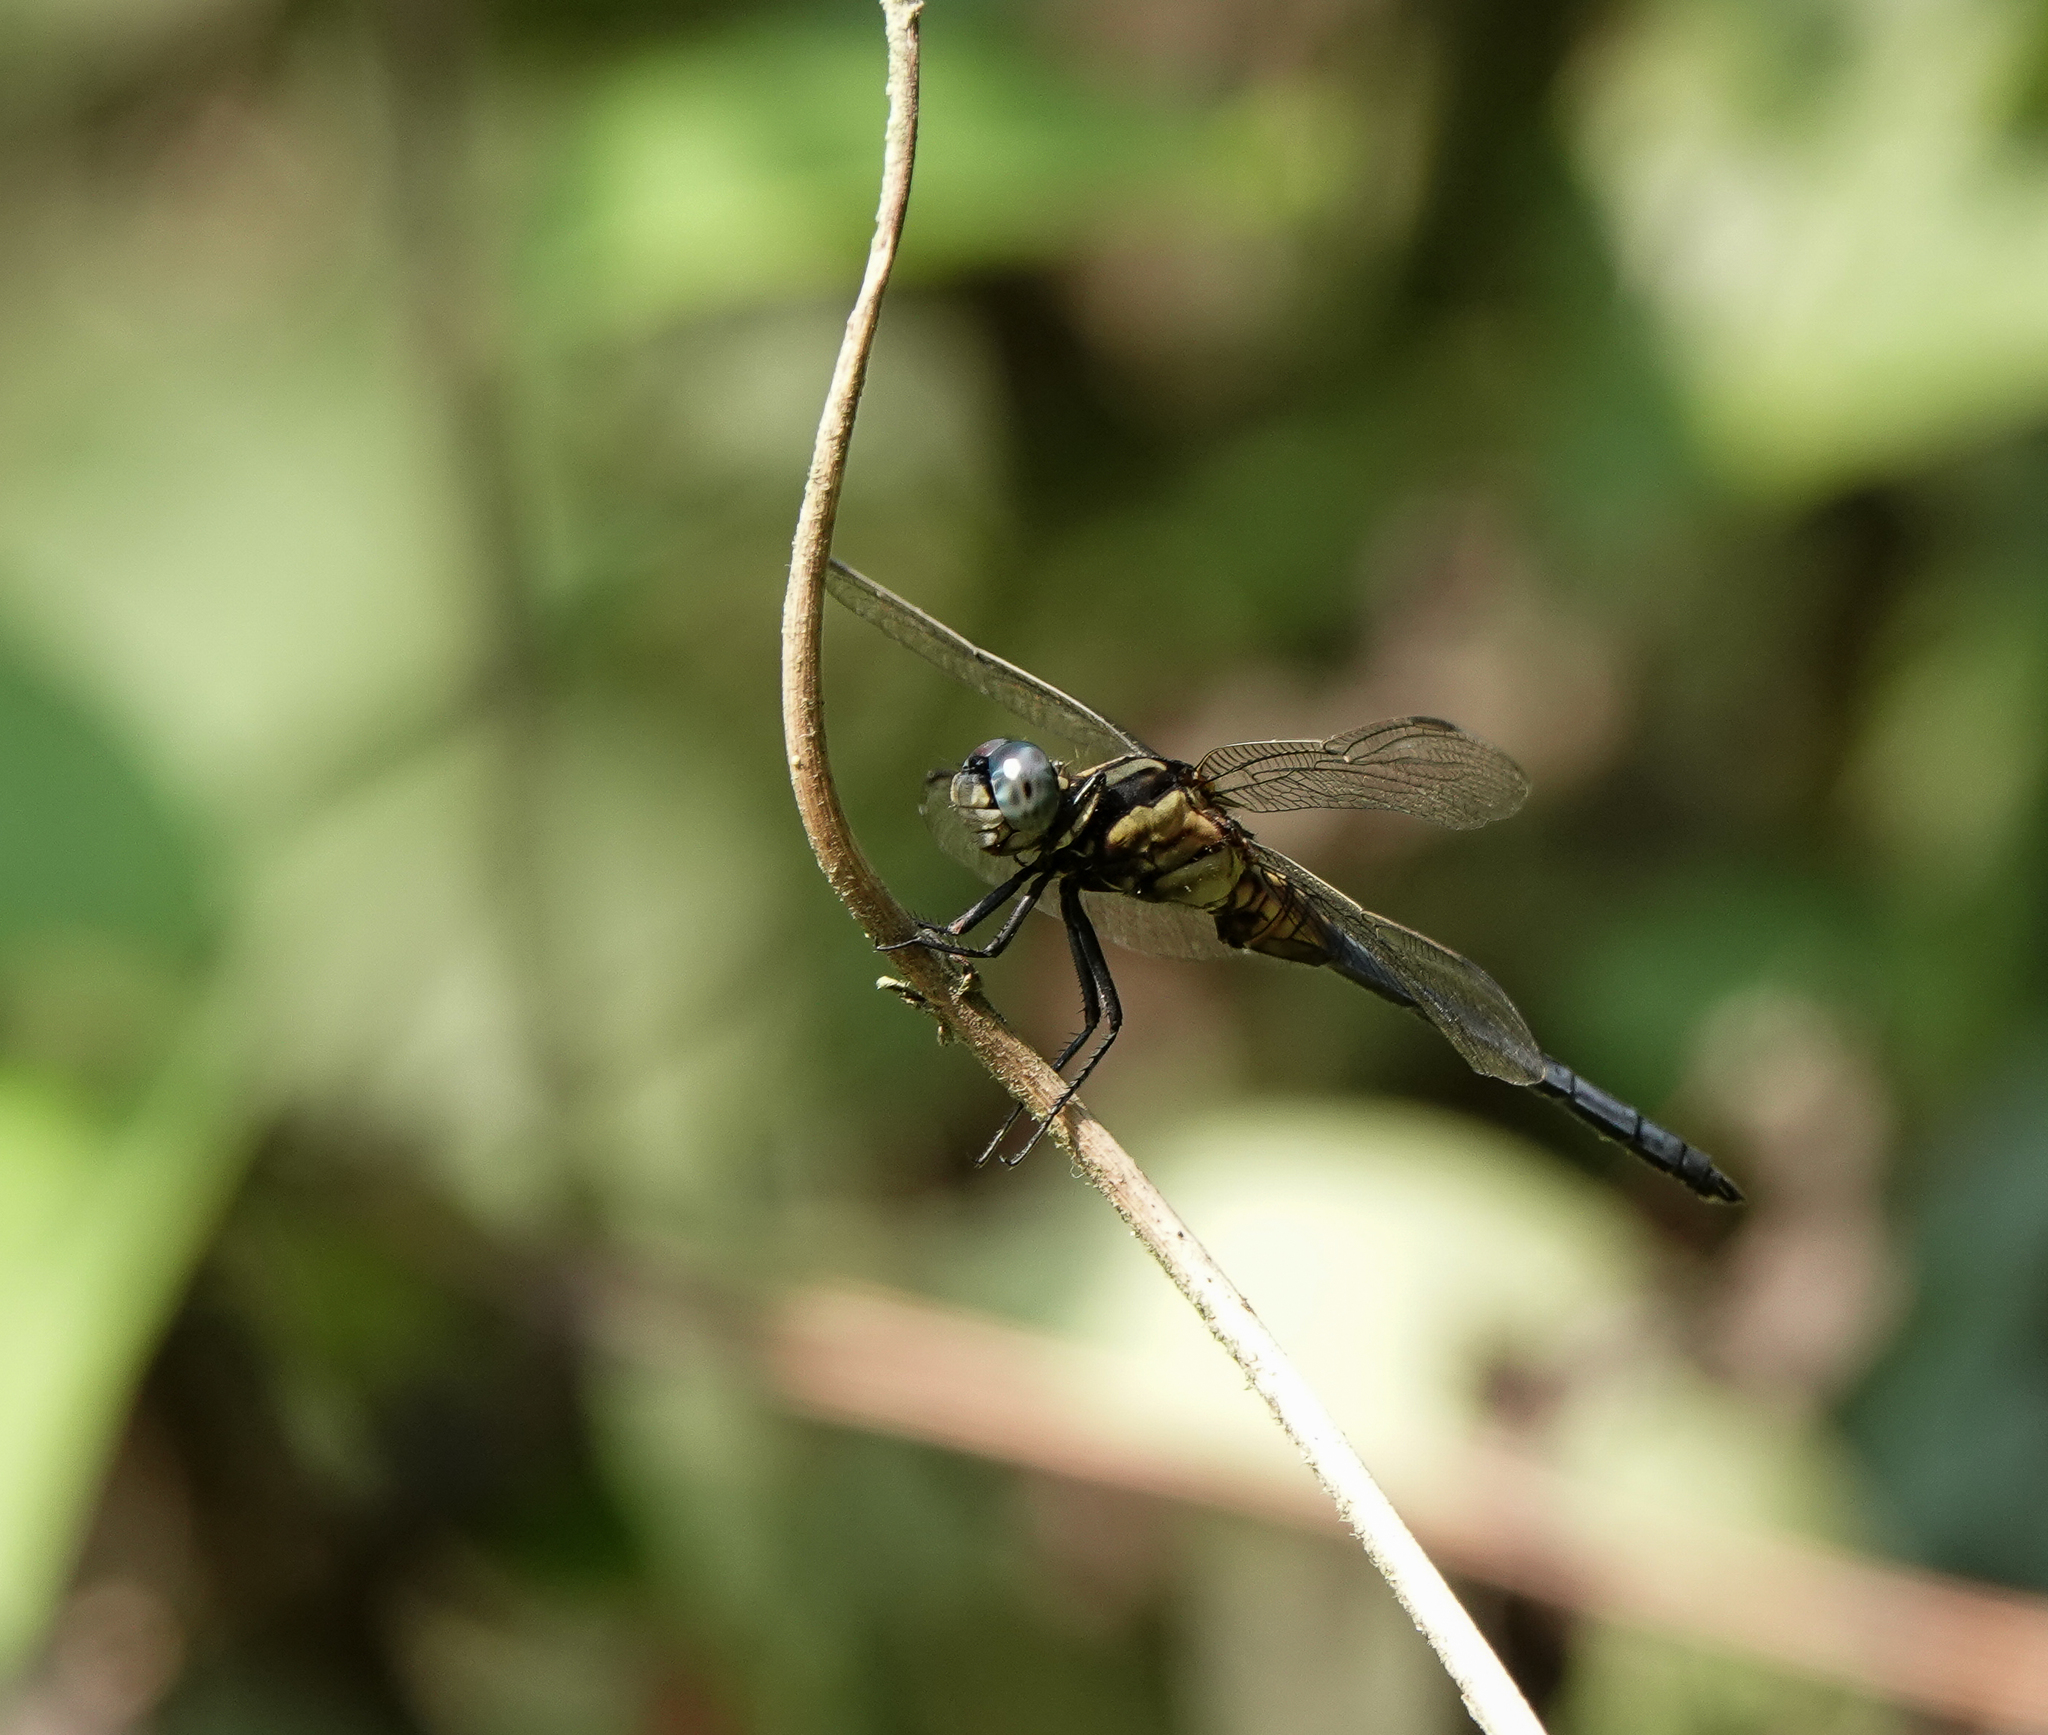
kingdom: Animalia
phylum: Arthropoda
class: Insecta
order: Odonata
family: Libellulidae
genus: Orthetrum
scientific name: Orthetrum luzonicum
